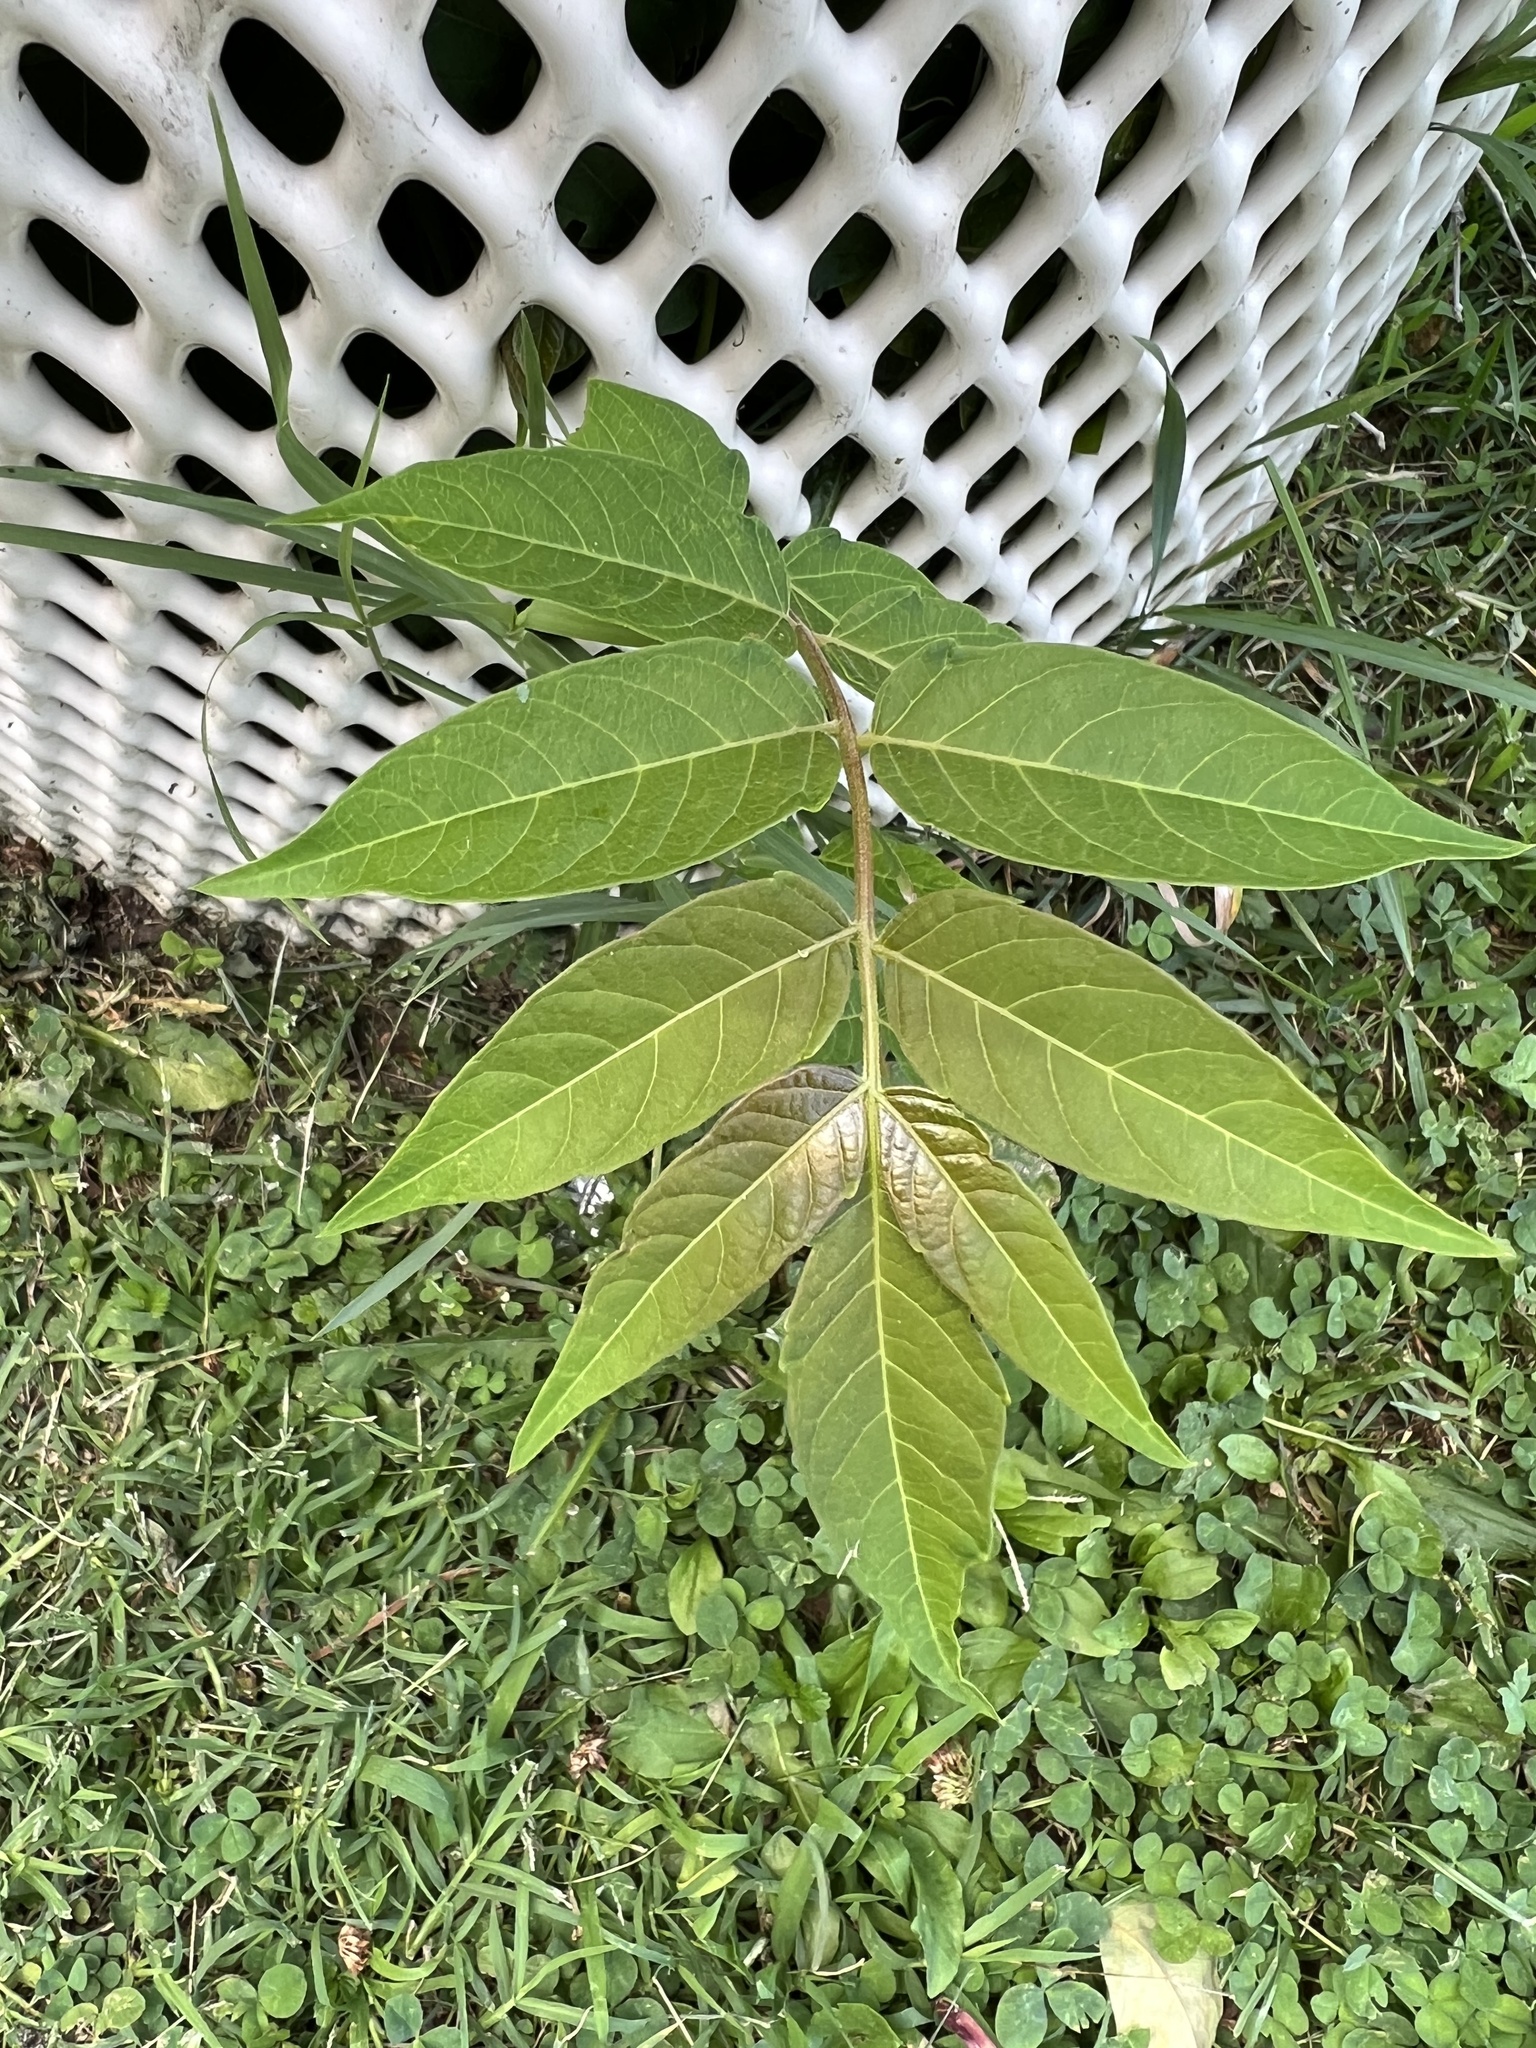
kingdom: Plantae
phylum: Tracheophyta
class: Magnoliopsida
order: Sapindales
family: Simaroubaceae
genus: Ailanthus
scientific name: Ailanthus altissima
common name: Tree-of-heaven
